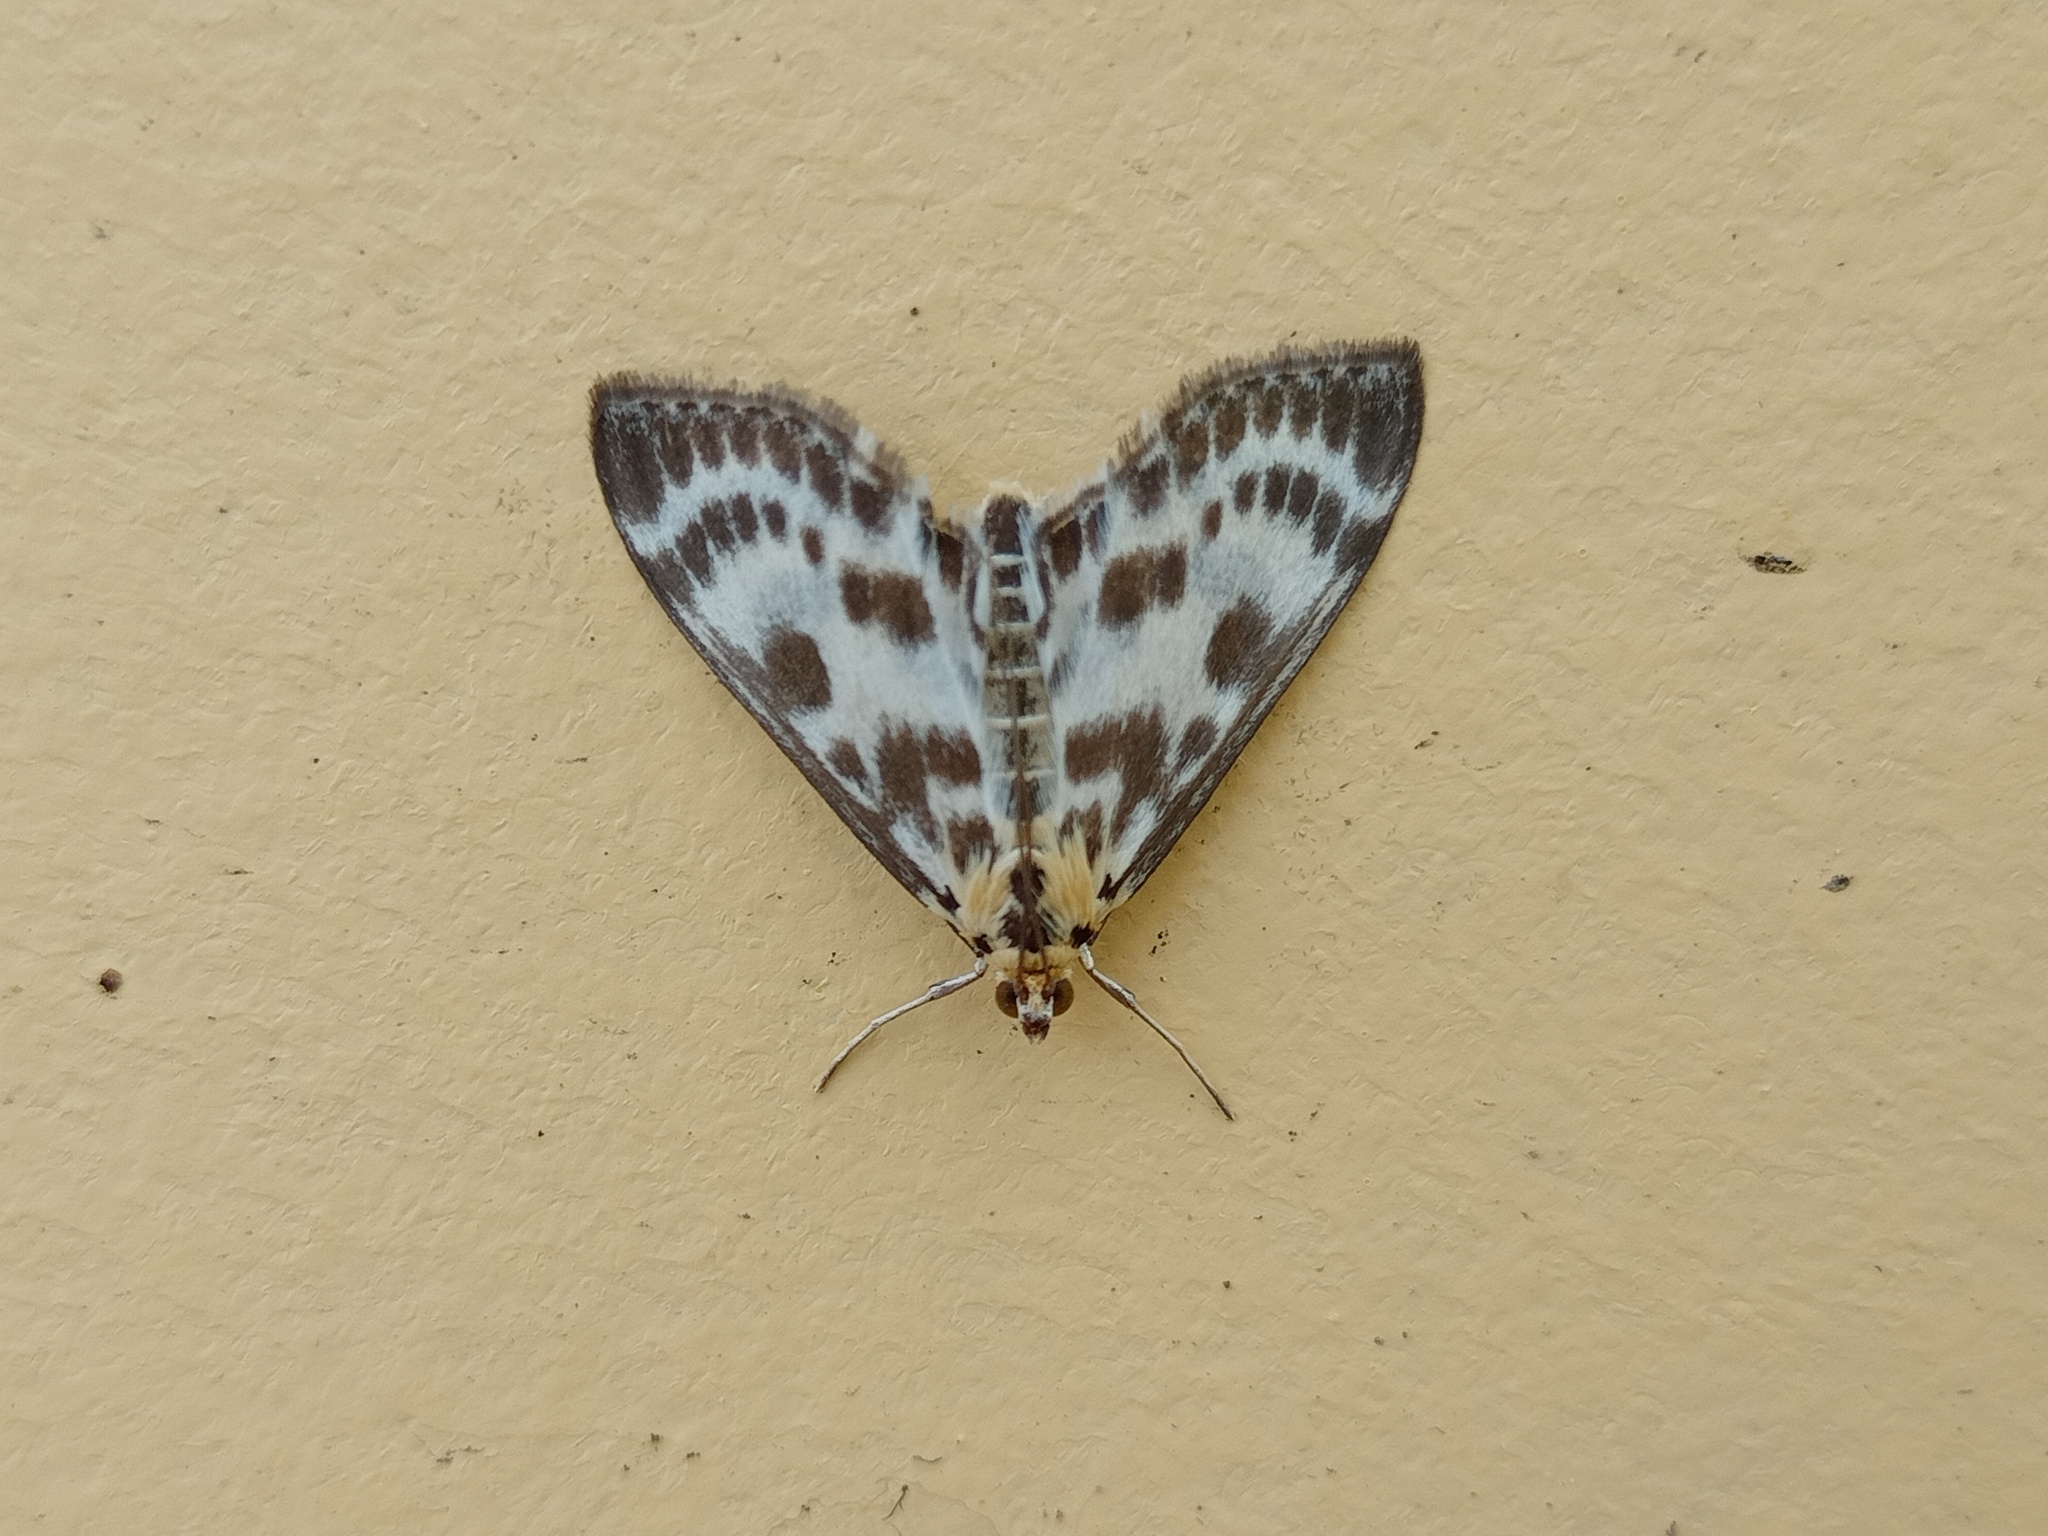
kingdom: Animalia
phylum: Arthropoda
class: Insecta
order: Lepidoptera
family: Crambidae
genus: Anania
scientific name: Anania hortulata
